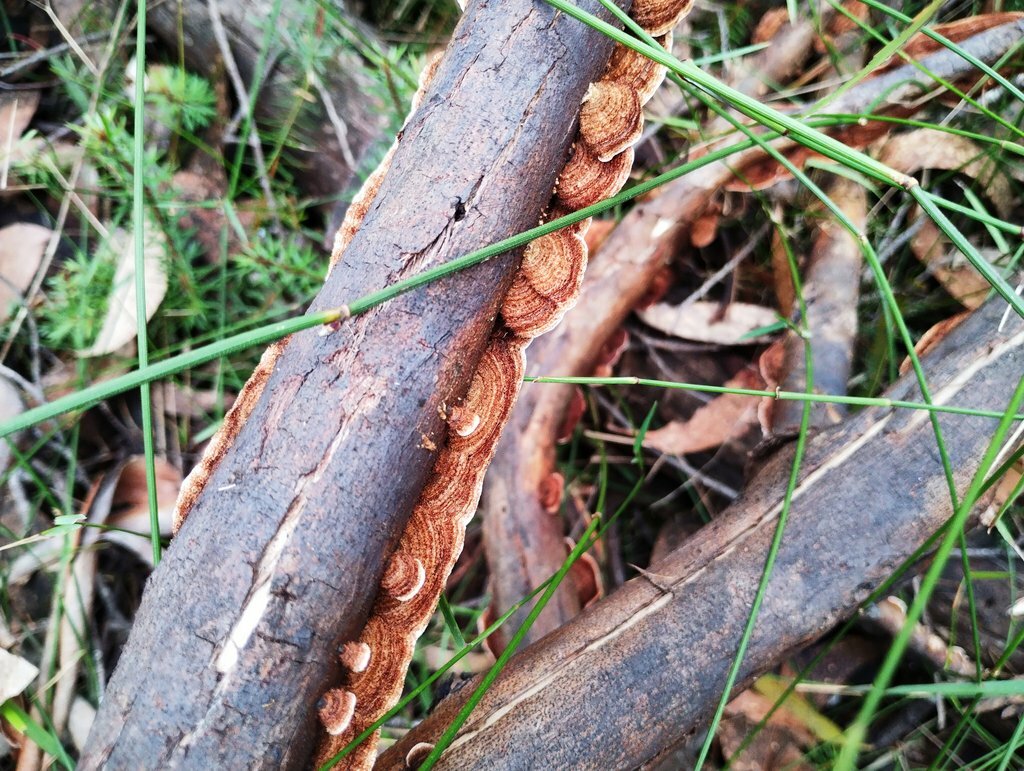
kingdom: Fungi
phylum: Basidiomycota
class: Agaricomycetes
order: Russulales
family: Stereaceae
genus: Xylobolus
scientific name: Xylobolus illudens
